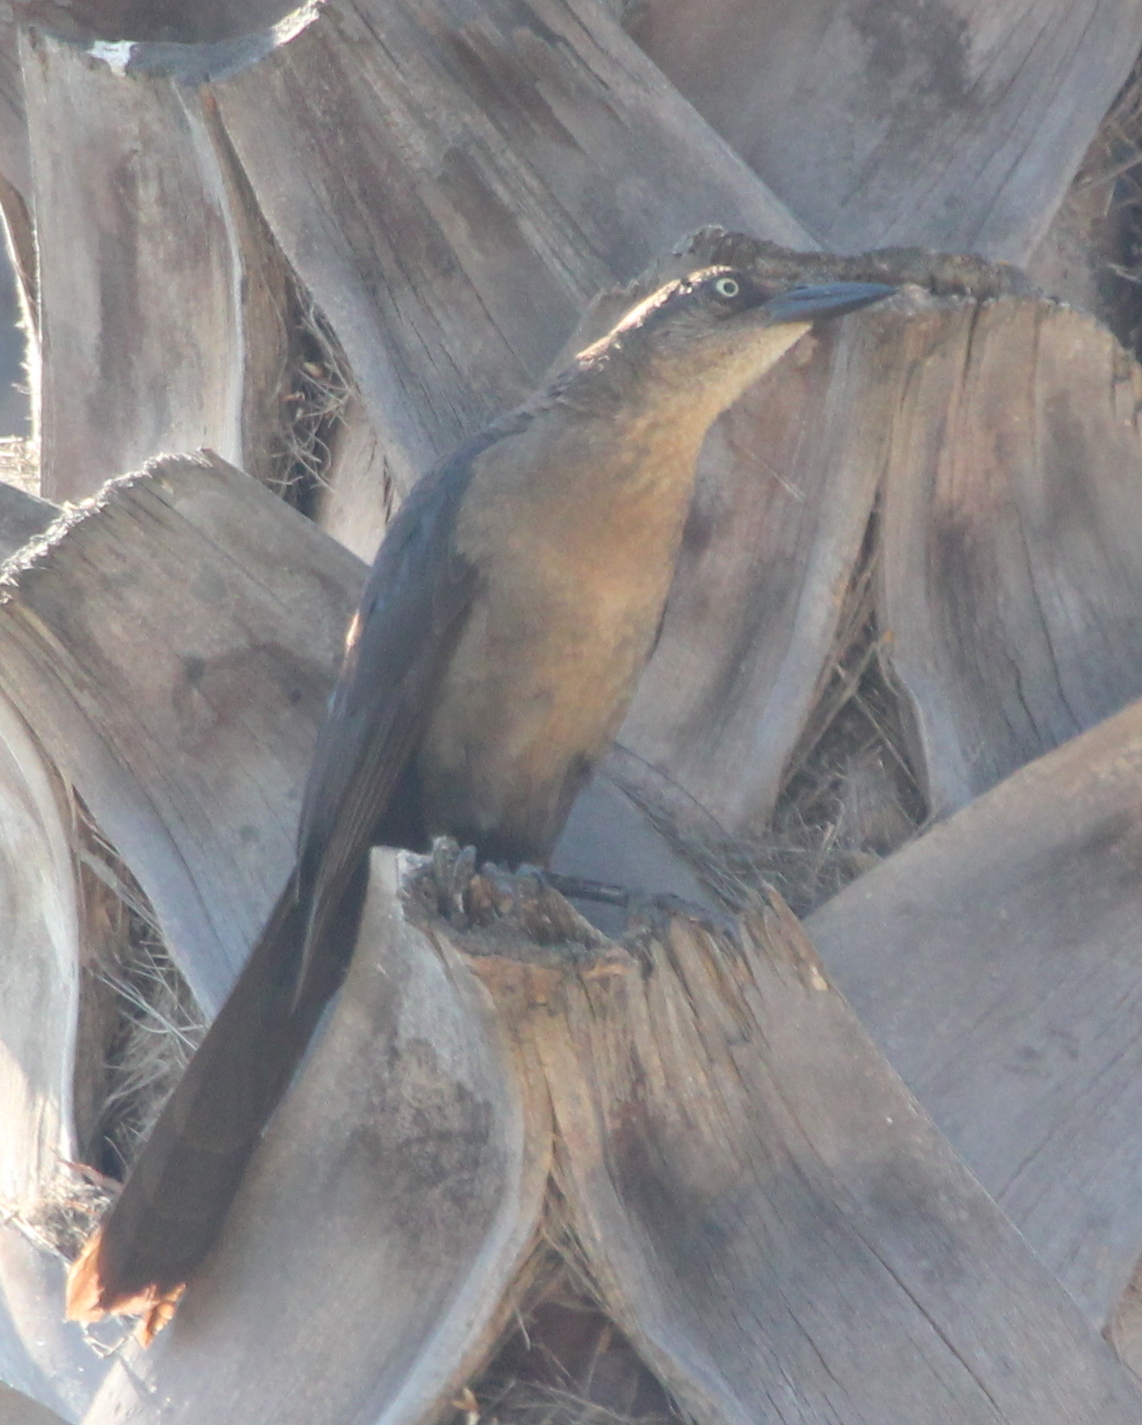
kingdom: Animalia
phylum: Chordata
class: Aves
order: Passeriformes
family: Icteridae
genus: Quiscalus
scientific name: Quiscalus mexicanus
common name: Great-tailed grackle
